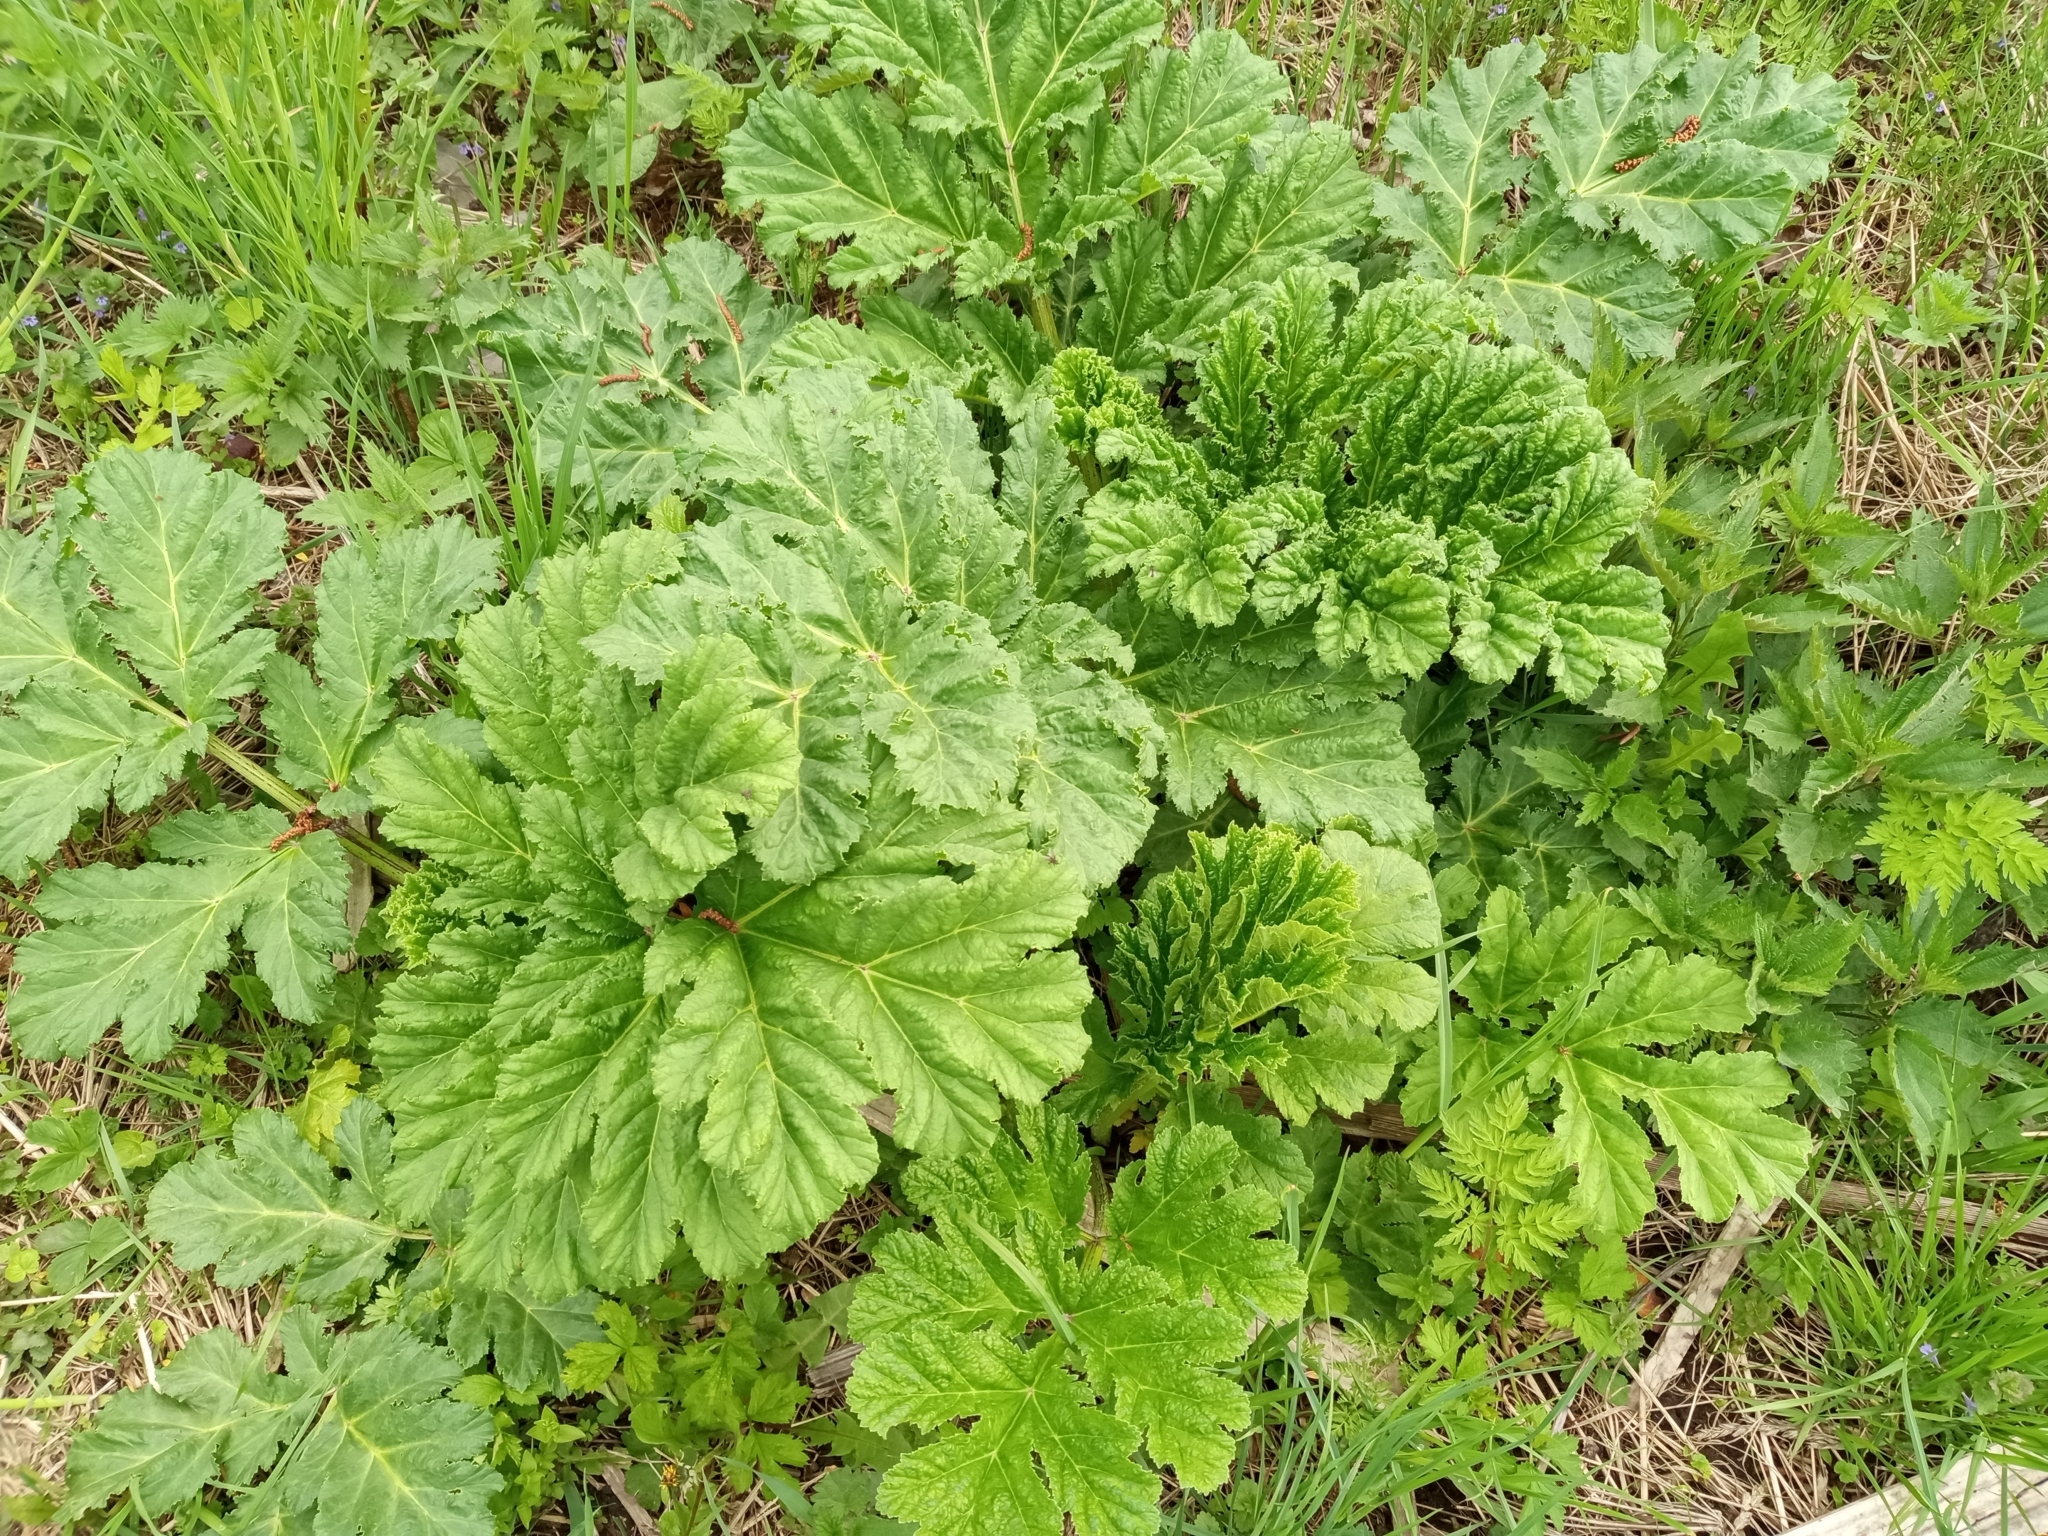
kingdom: Plantae
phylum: Tracheophyta
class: Magnoliopsida
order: Apiales
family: Apiaceae
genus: Heracleum
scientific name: Heracleum sosnowskyi
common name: Sosnowsky's hogweed
